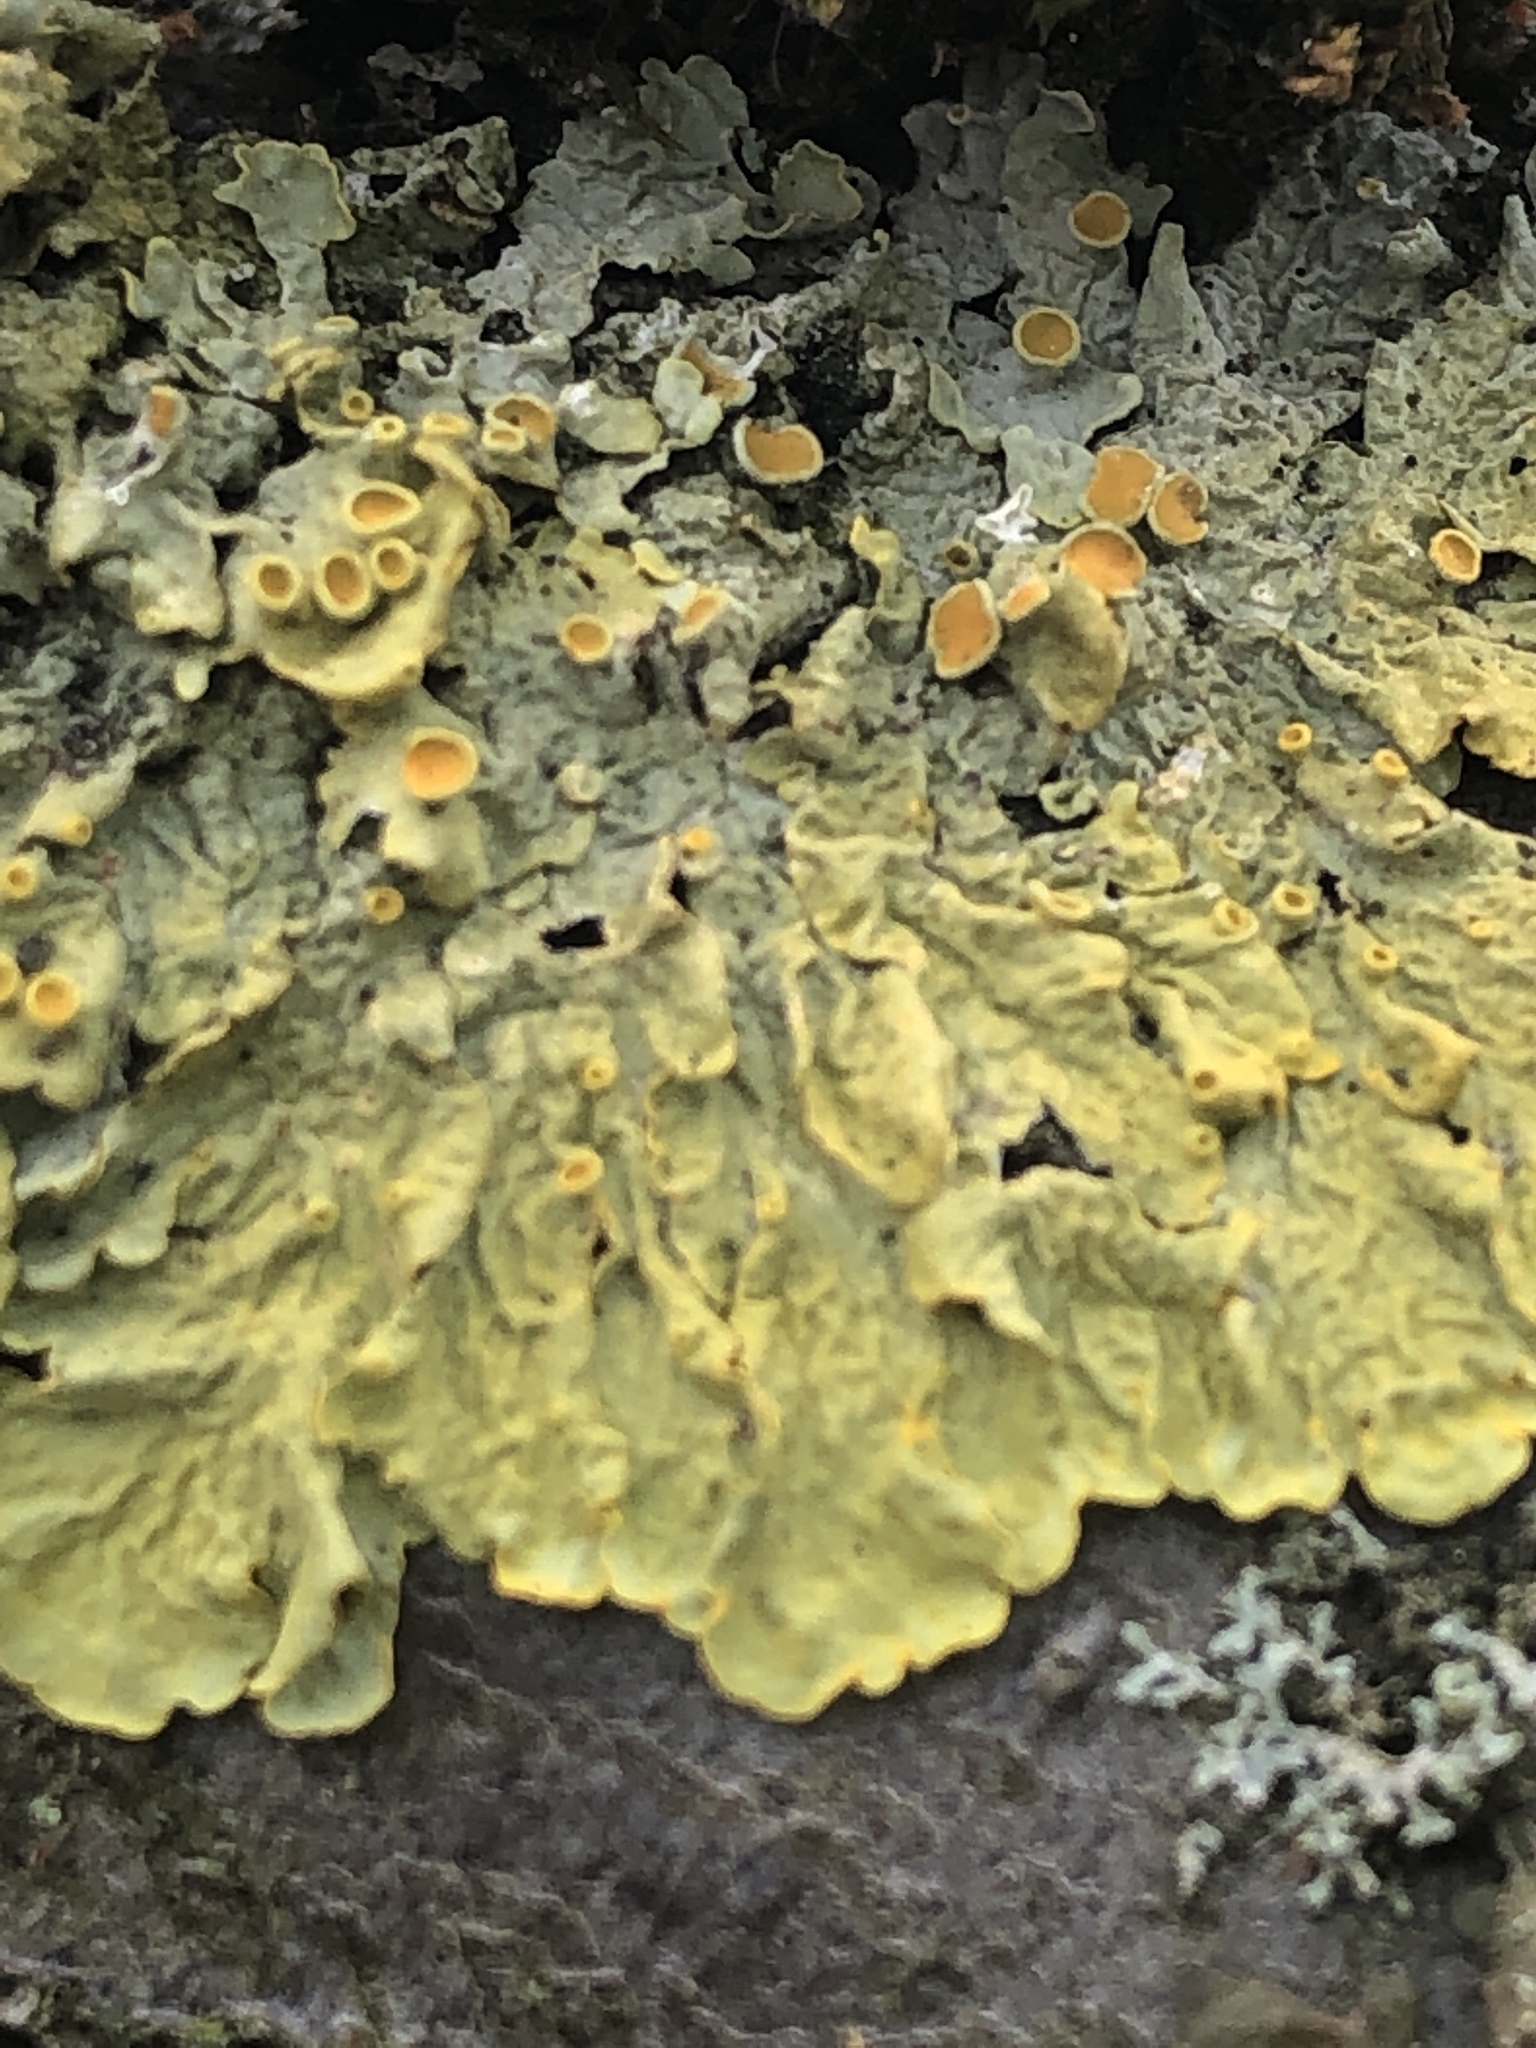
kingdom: Fungi
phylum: Ascomycota
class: Lecanoromycetes
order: Teloschistales
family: Teloschistaceae
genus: Xanthoria
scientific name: Xanthoria parietina
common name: Common orange lichen
